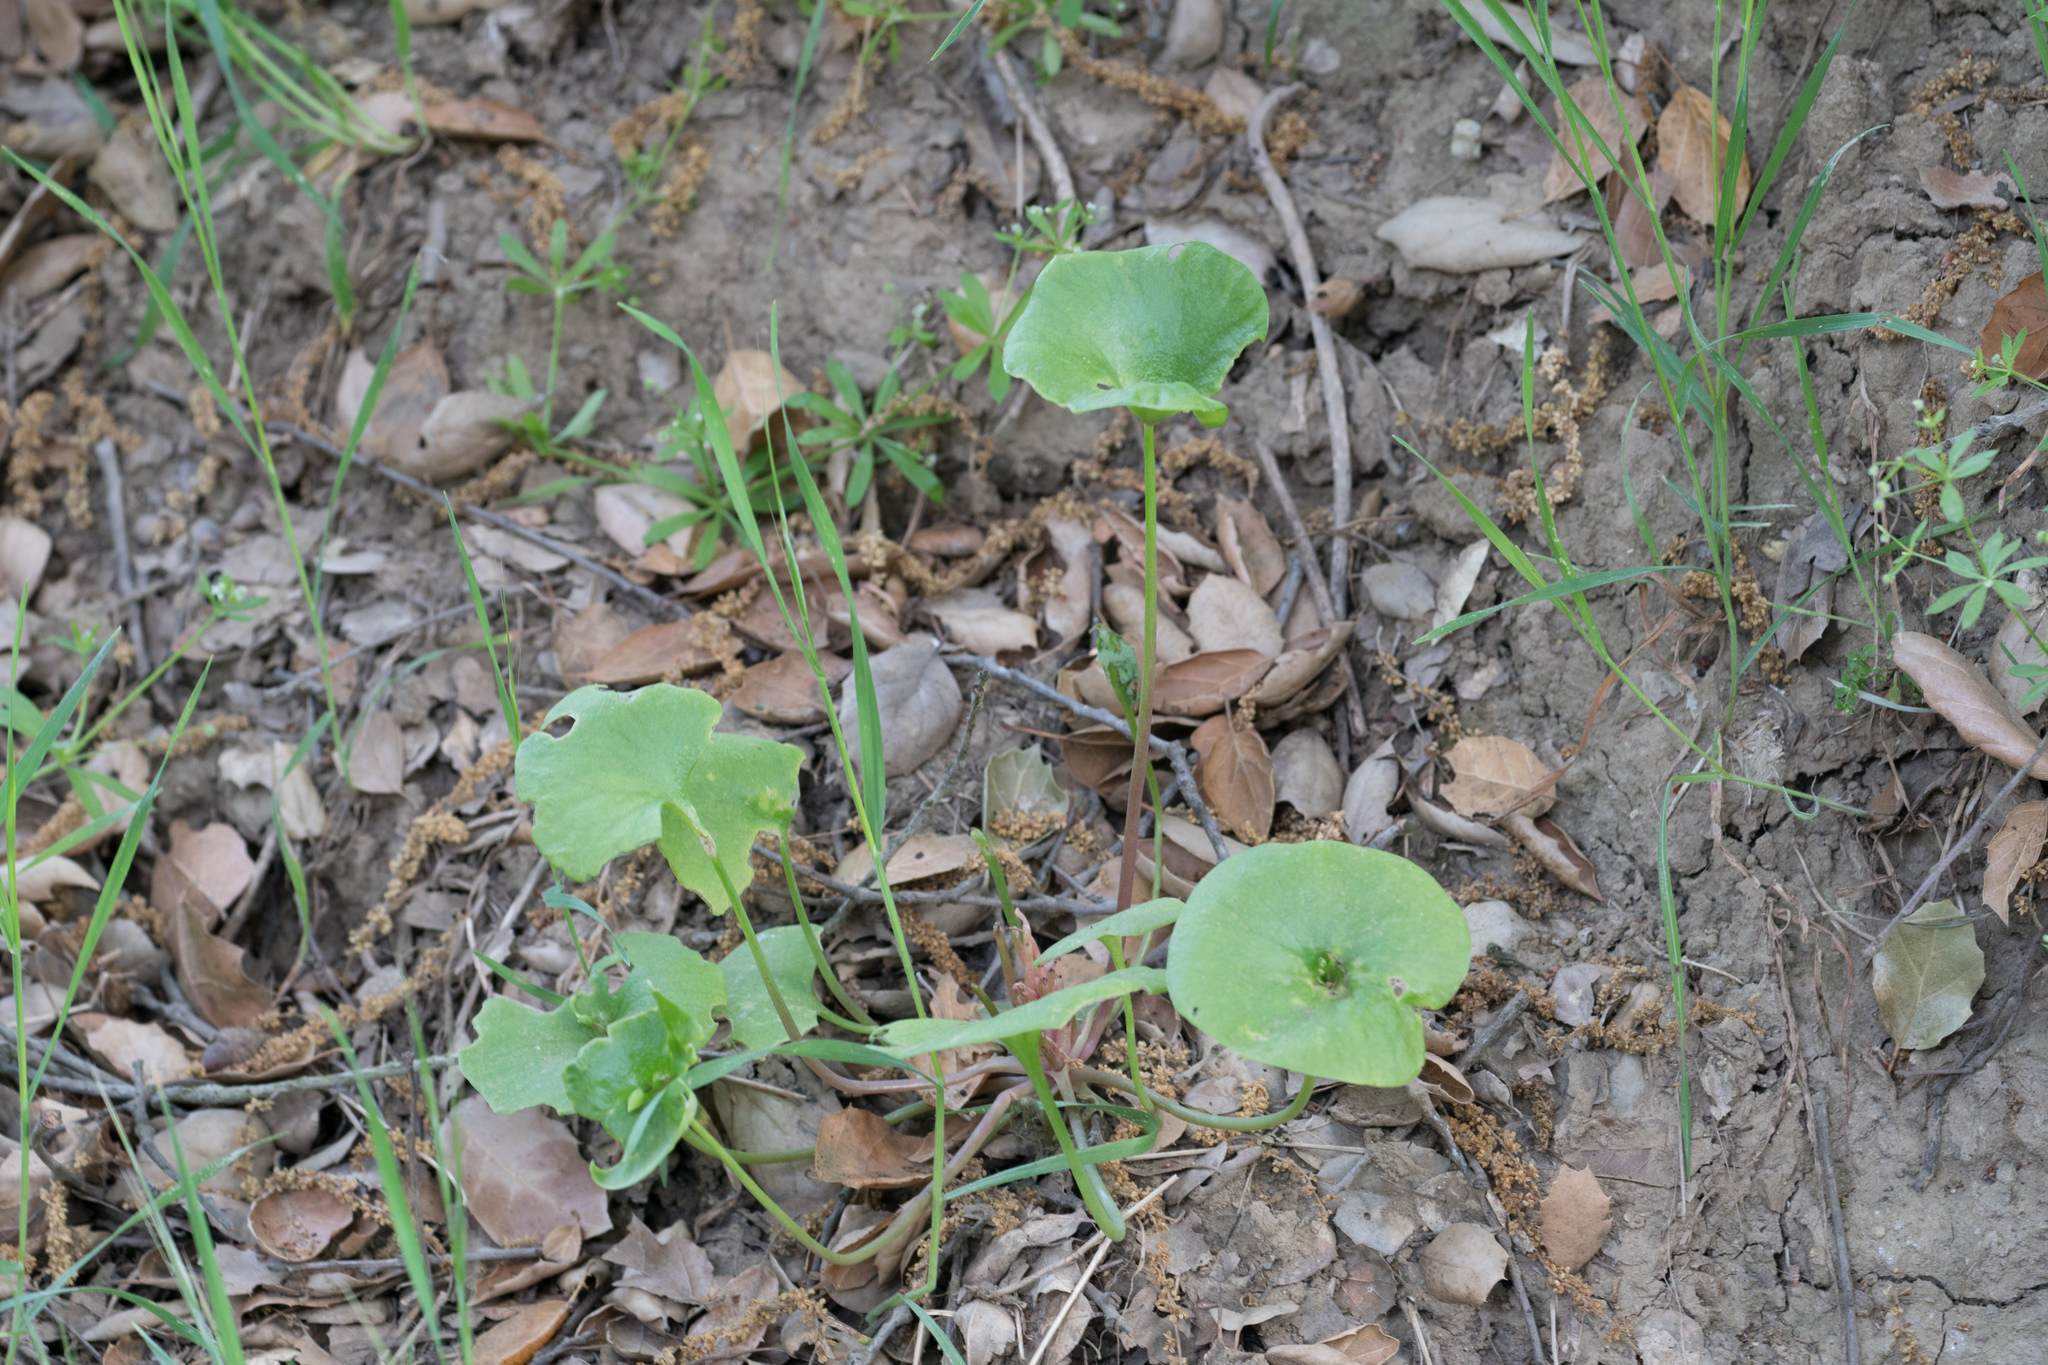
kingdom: Plantae
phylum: Tracheophyta
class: Magnoliopsida
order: Caryophyllales
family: Montiaceae
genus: Claytonia
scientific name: Claytonia perfoliata
